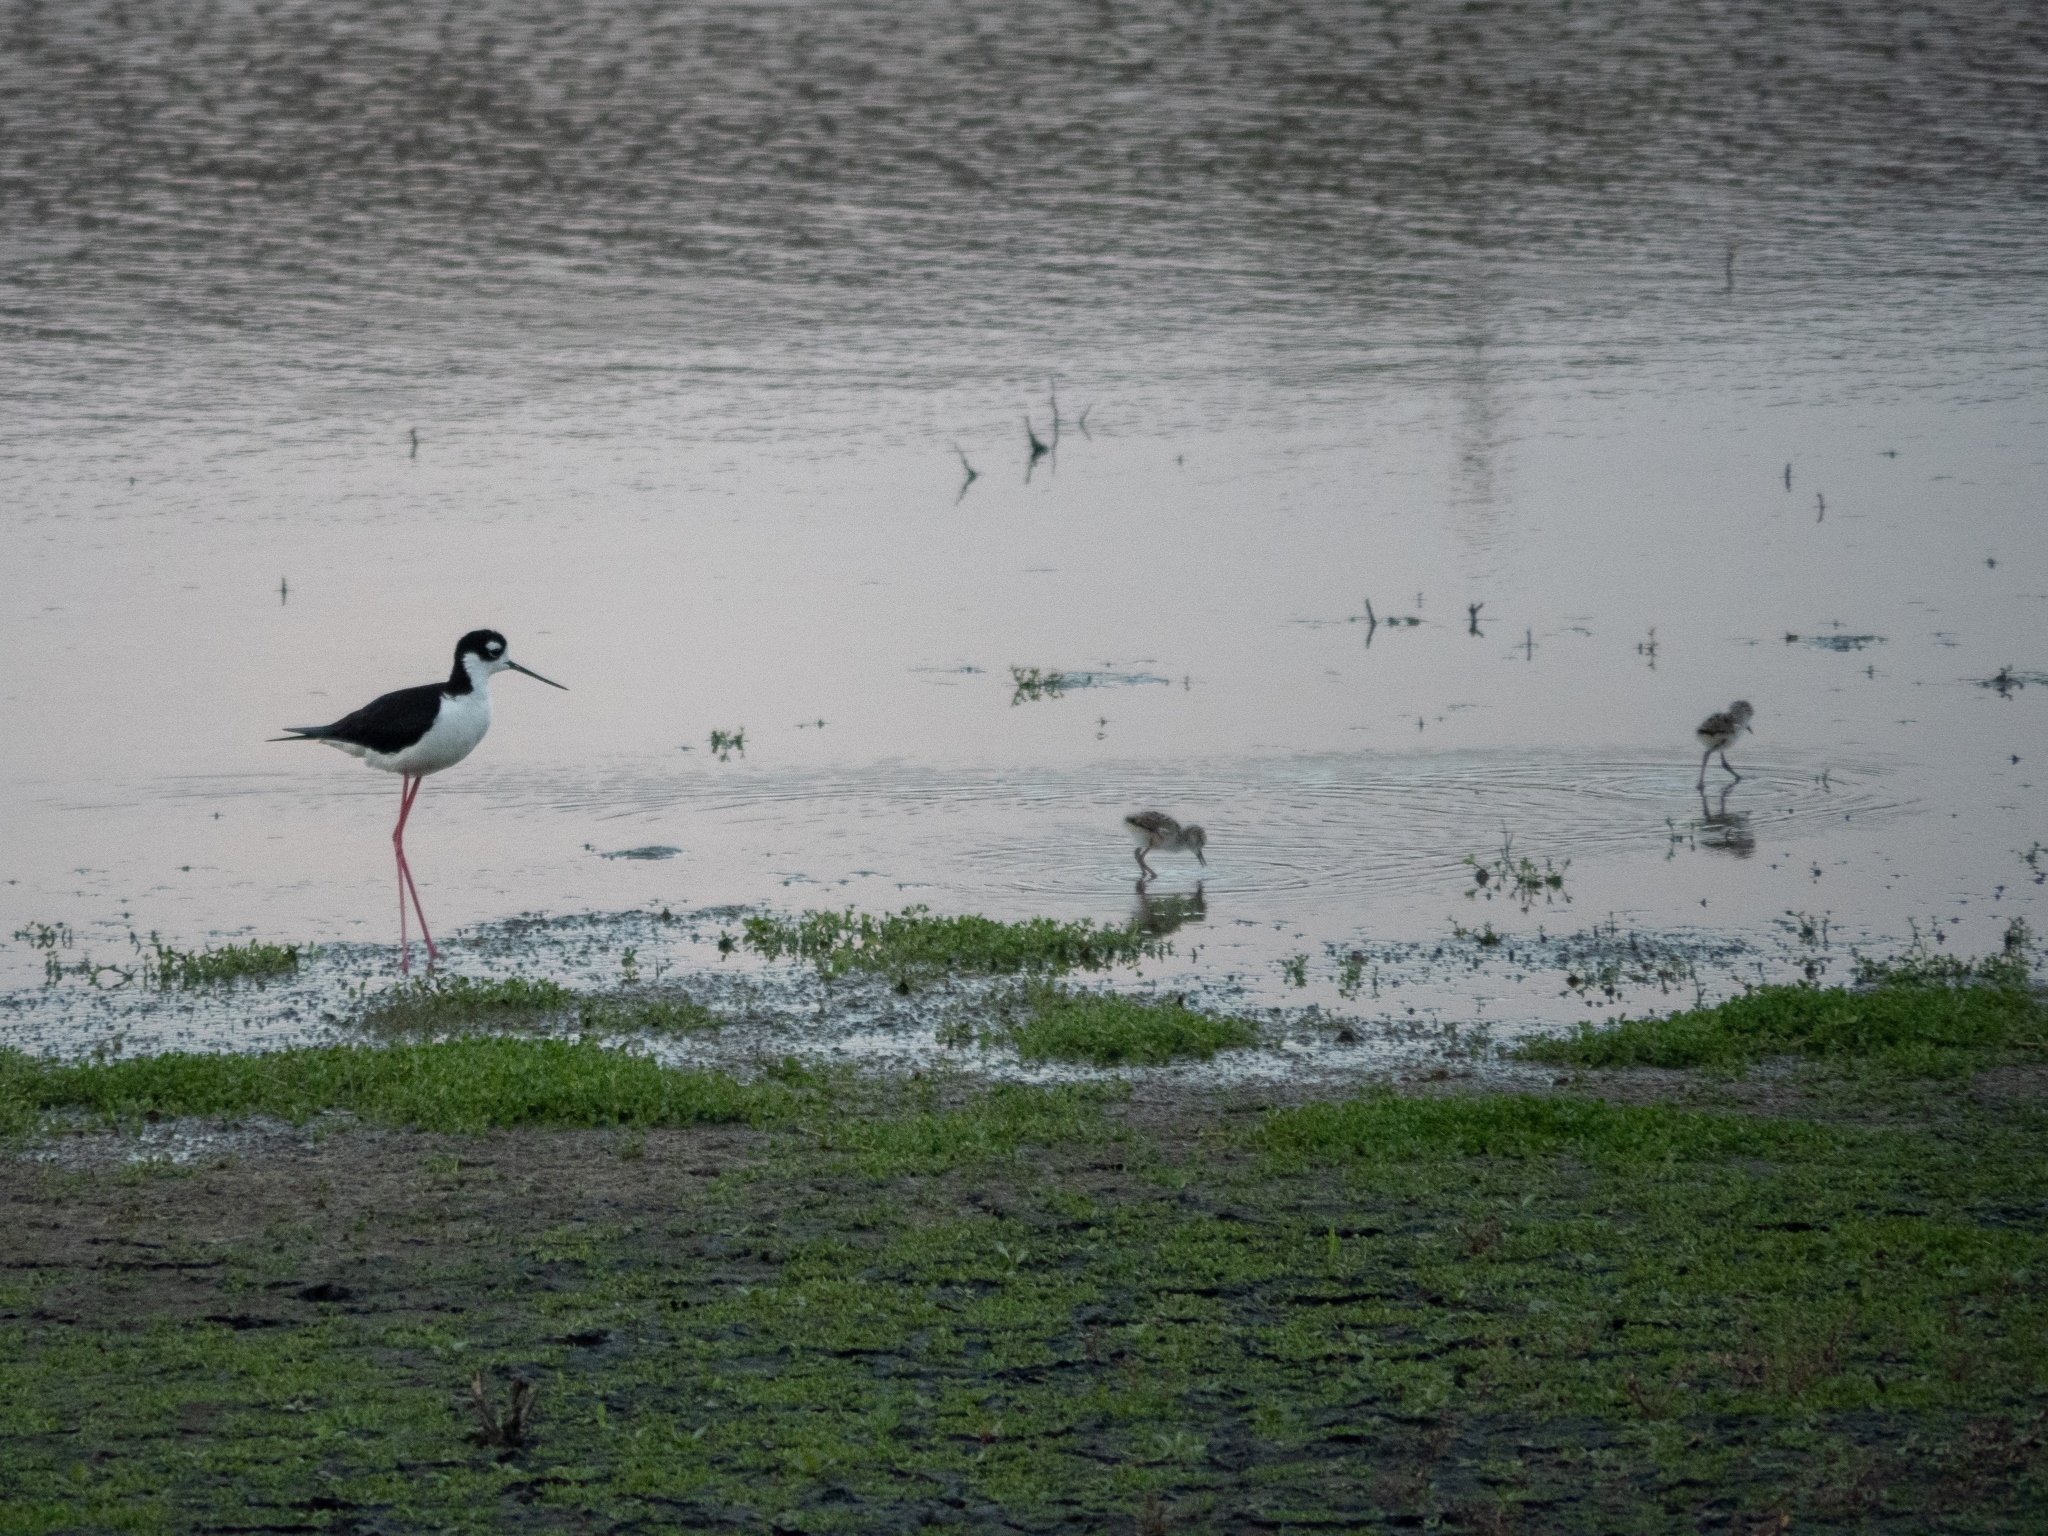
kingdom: Animalia
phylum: Chordata
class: Aves
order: Charadriiformes
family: Recurvirostridae
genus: Himantopus
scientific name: Himantopus mexicanus
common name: Black-necked stilt
